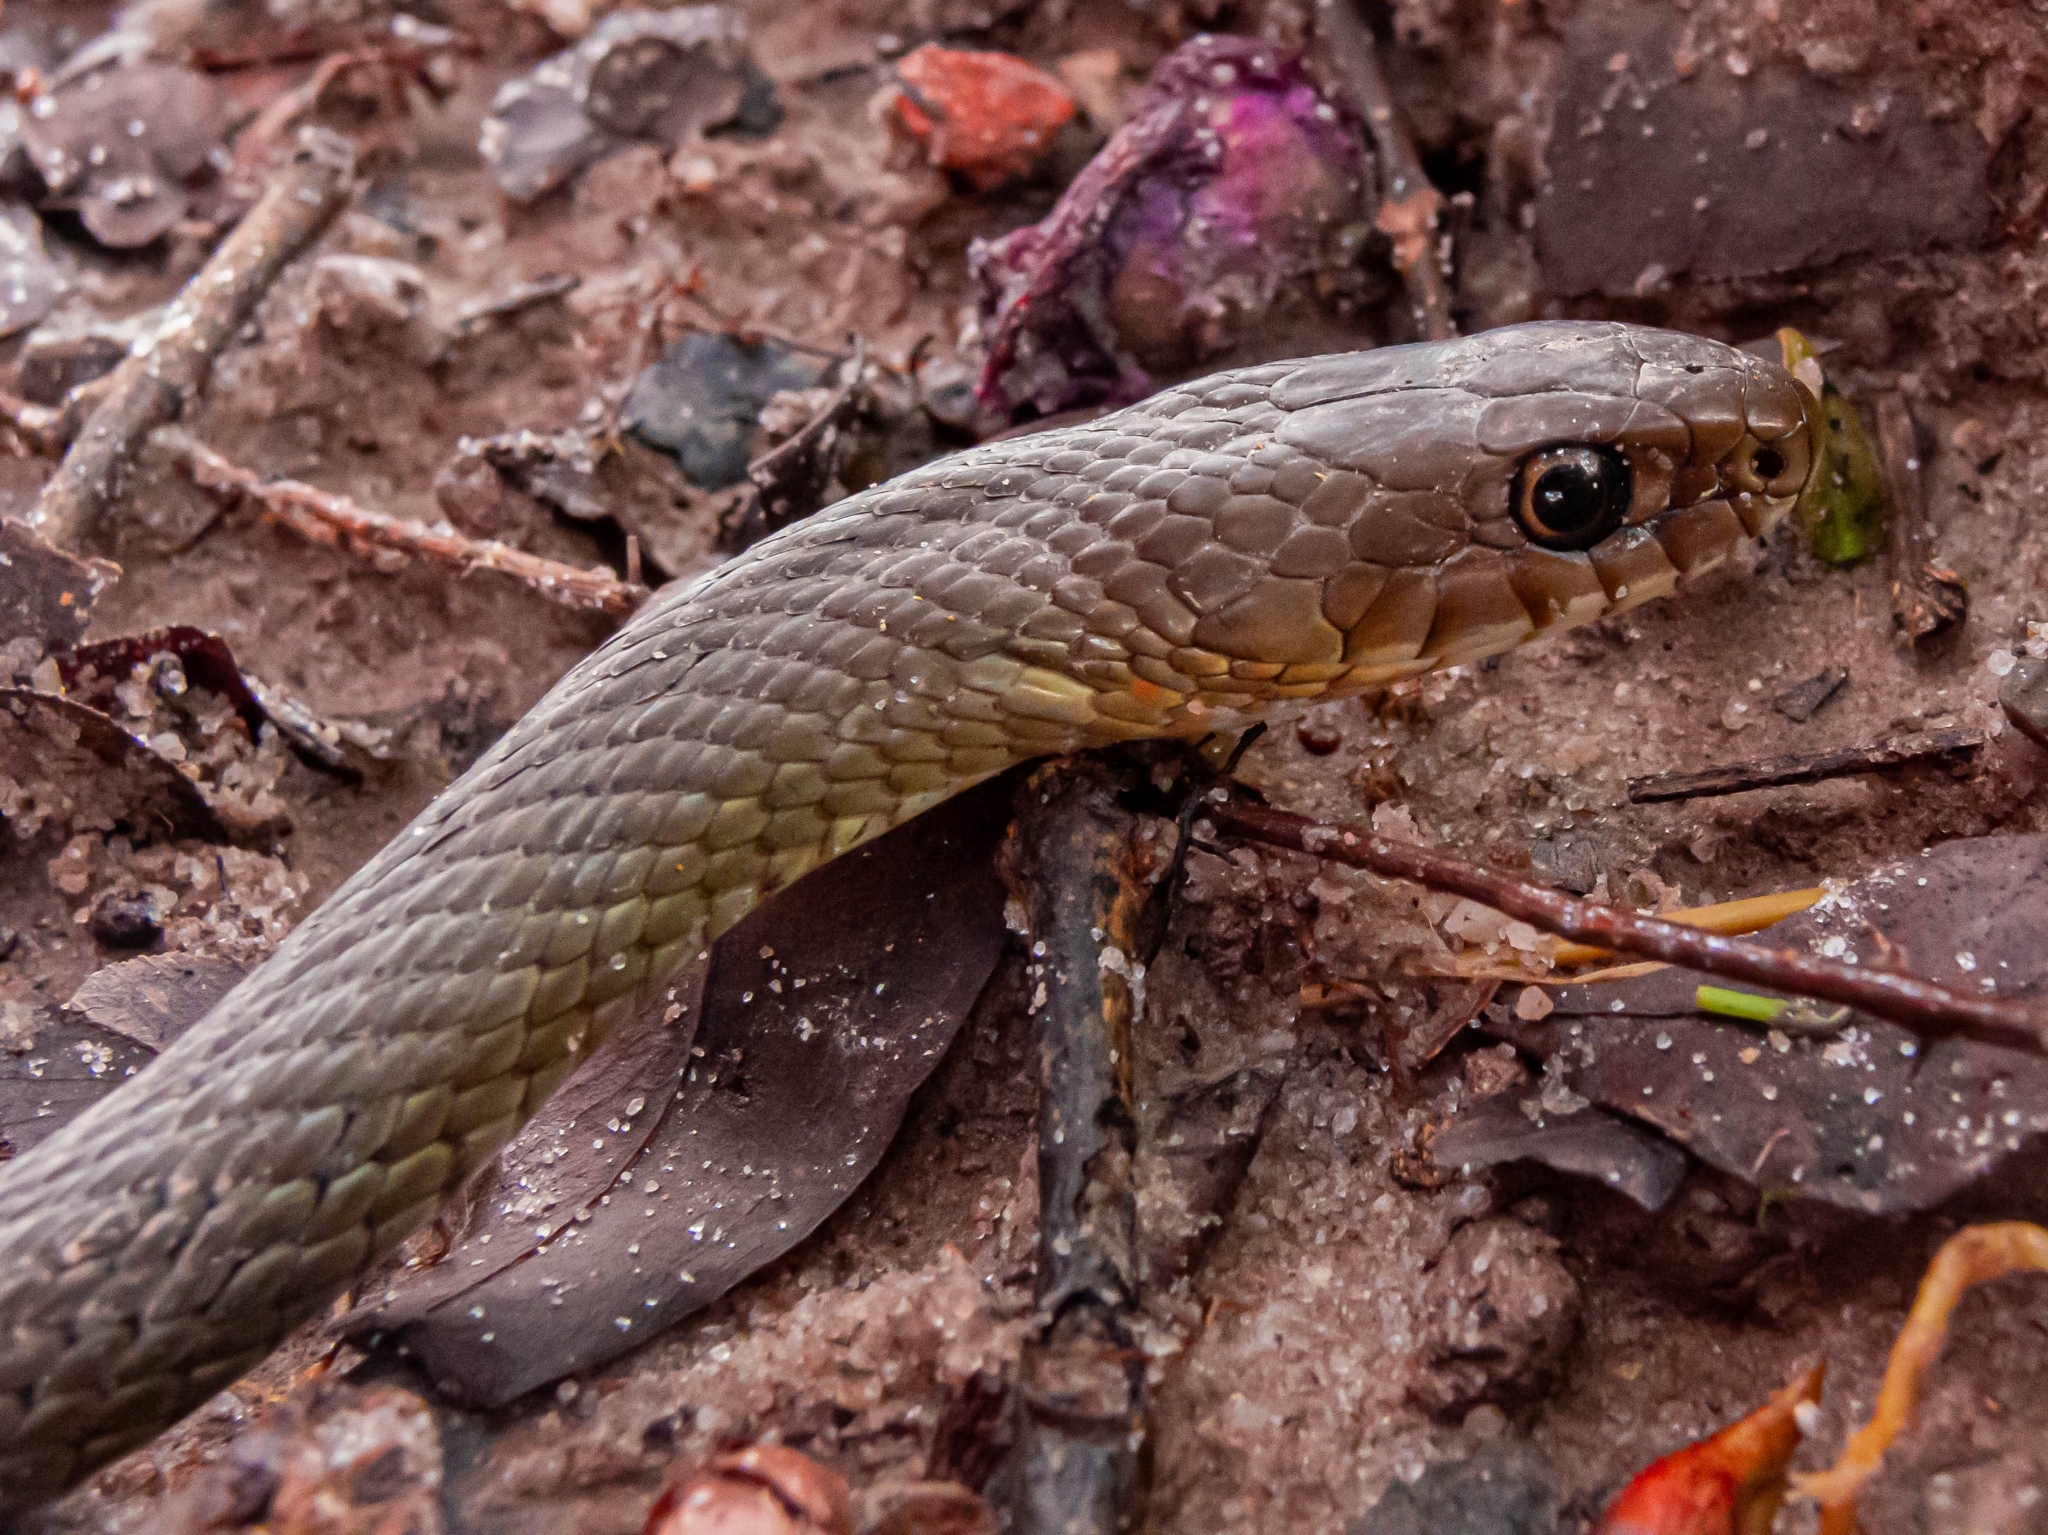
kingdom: Animalia
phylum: Chordata
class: Squamata
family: Colubridae
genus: Philodryas
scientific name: Philodryas patagoniensis
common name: Patagonia green racer
